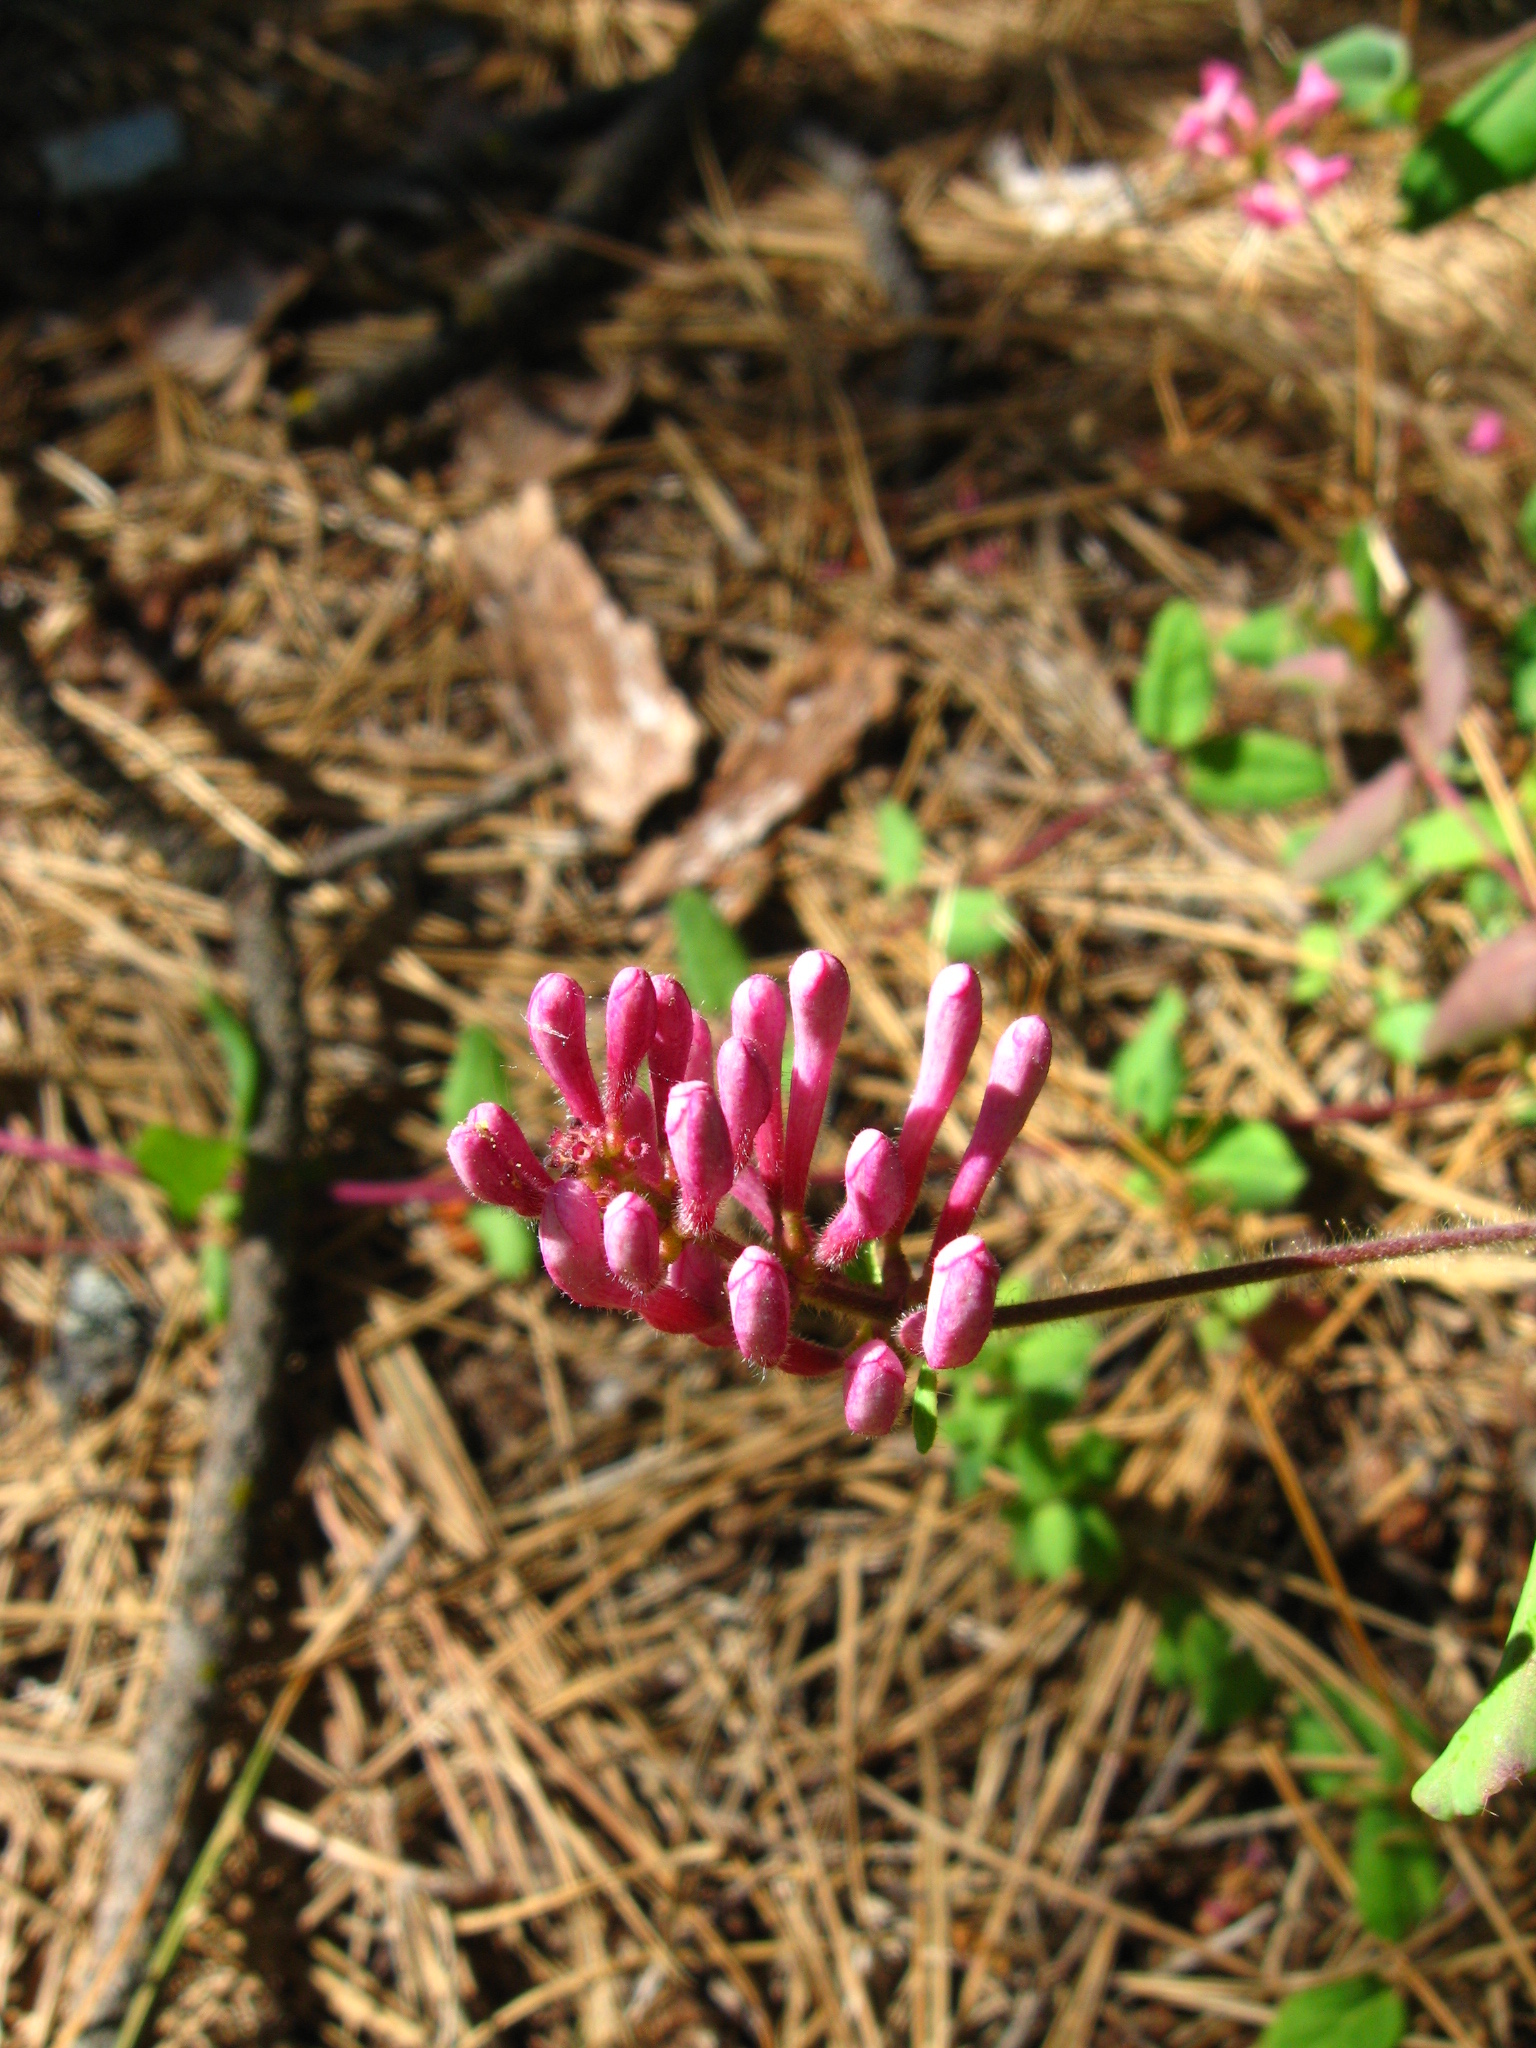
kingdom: Plantae
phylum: Tracheophyta
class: Magnoliopsida
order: Dipsacales
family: Caprifoliaceae
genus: Lonicera
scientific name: Lonicera hispidula
